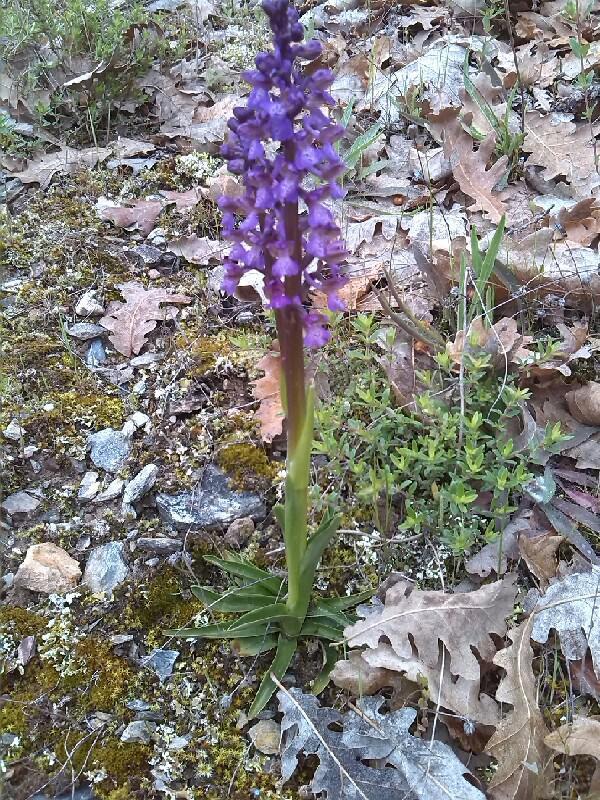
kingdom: Plantae
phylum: Tracheophyta
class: Liliopsida
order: Asparagales
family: Orchidaceae
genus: Anacamptis
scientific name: Anacamptis morio
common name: Green-winged orchid
